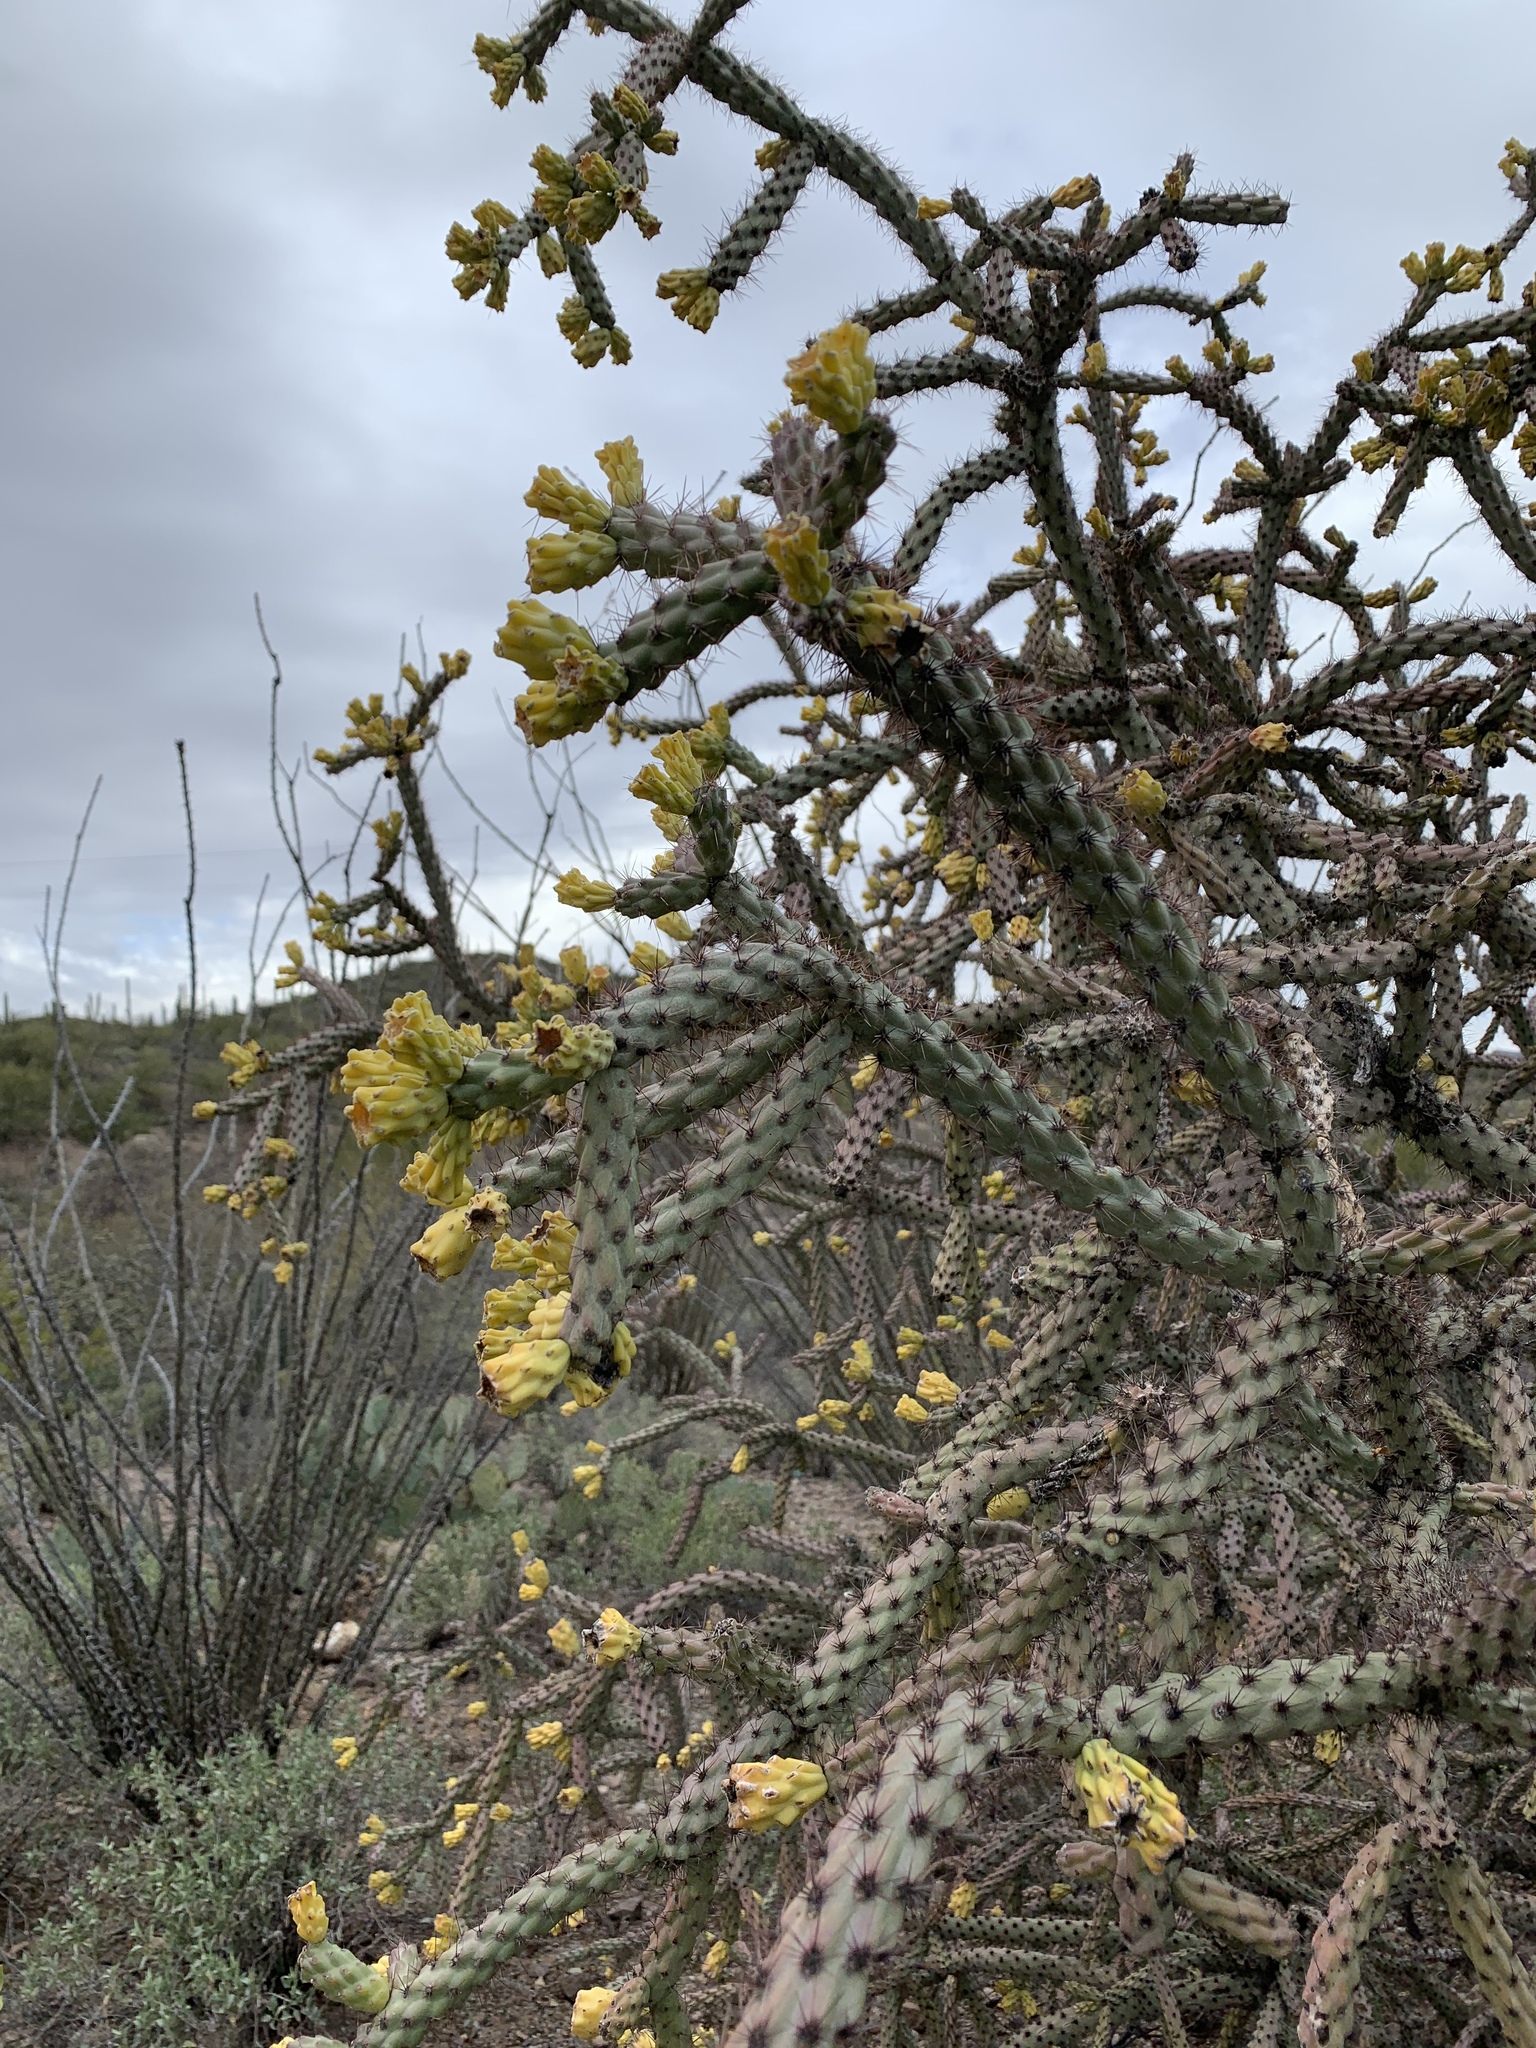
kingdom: Plantae
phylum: Tracheophyta
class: Magnoliopsida
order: Caryophyllales
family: Cactaceae
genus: Cylindropuntia
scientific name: Cylindropuntia thurberi
